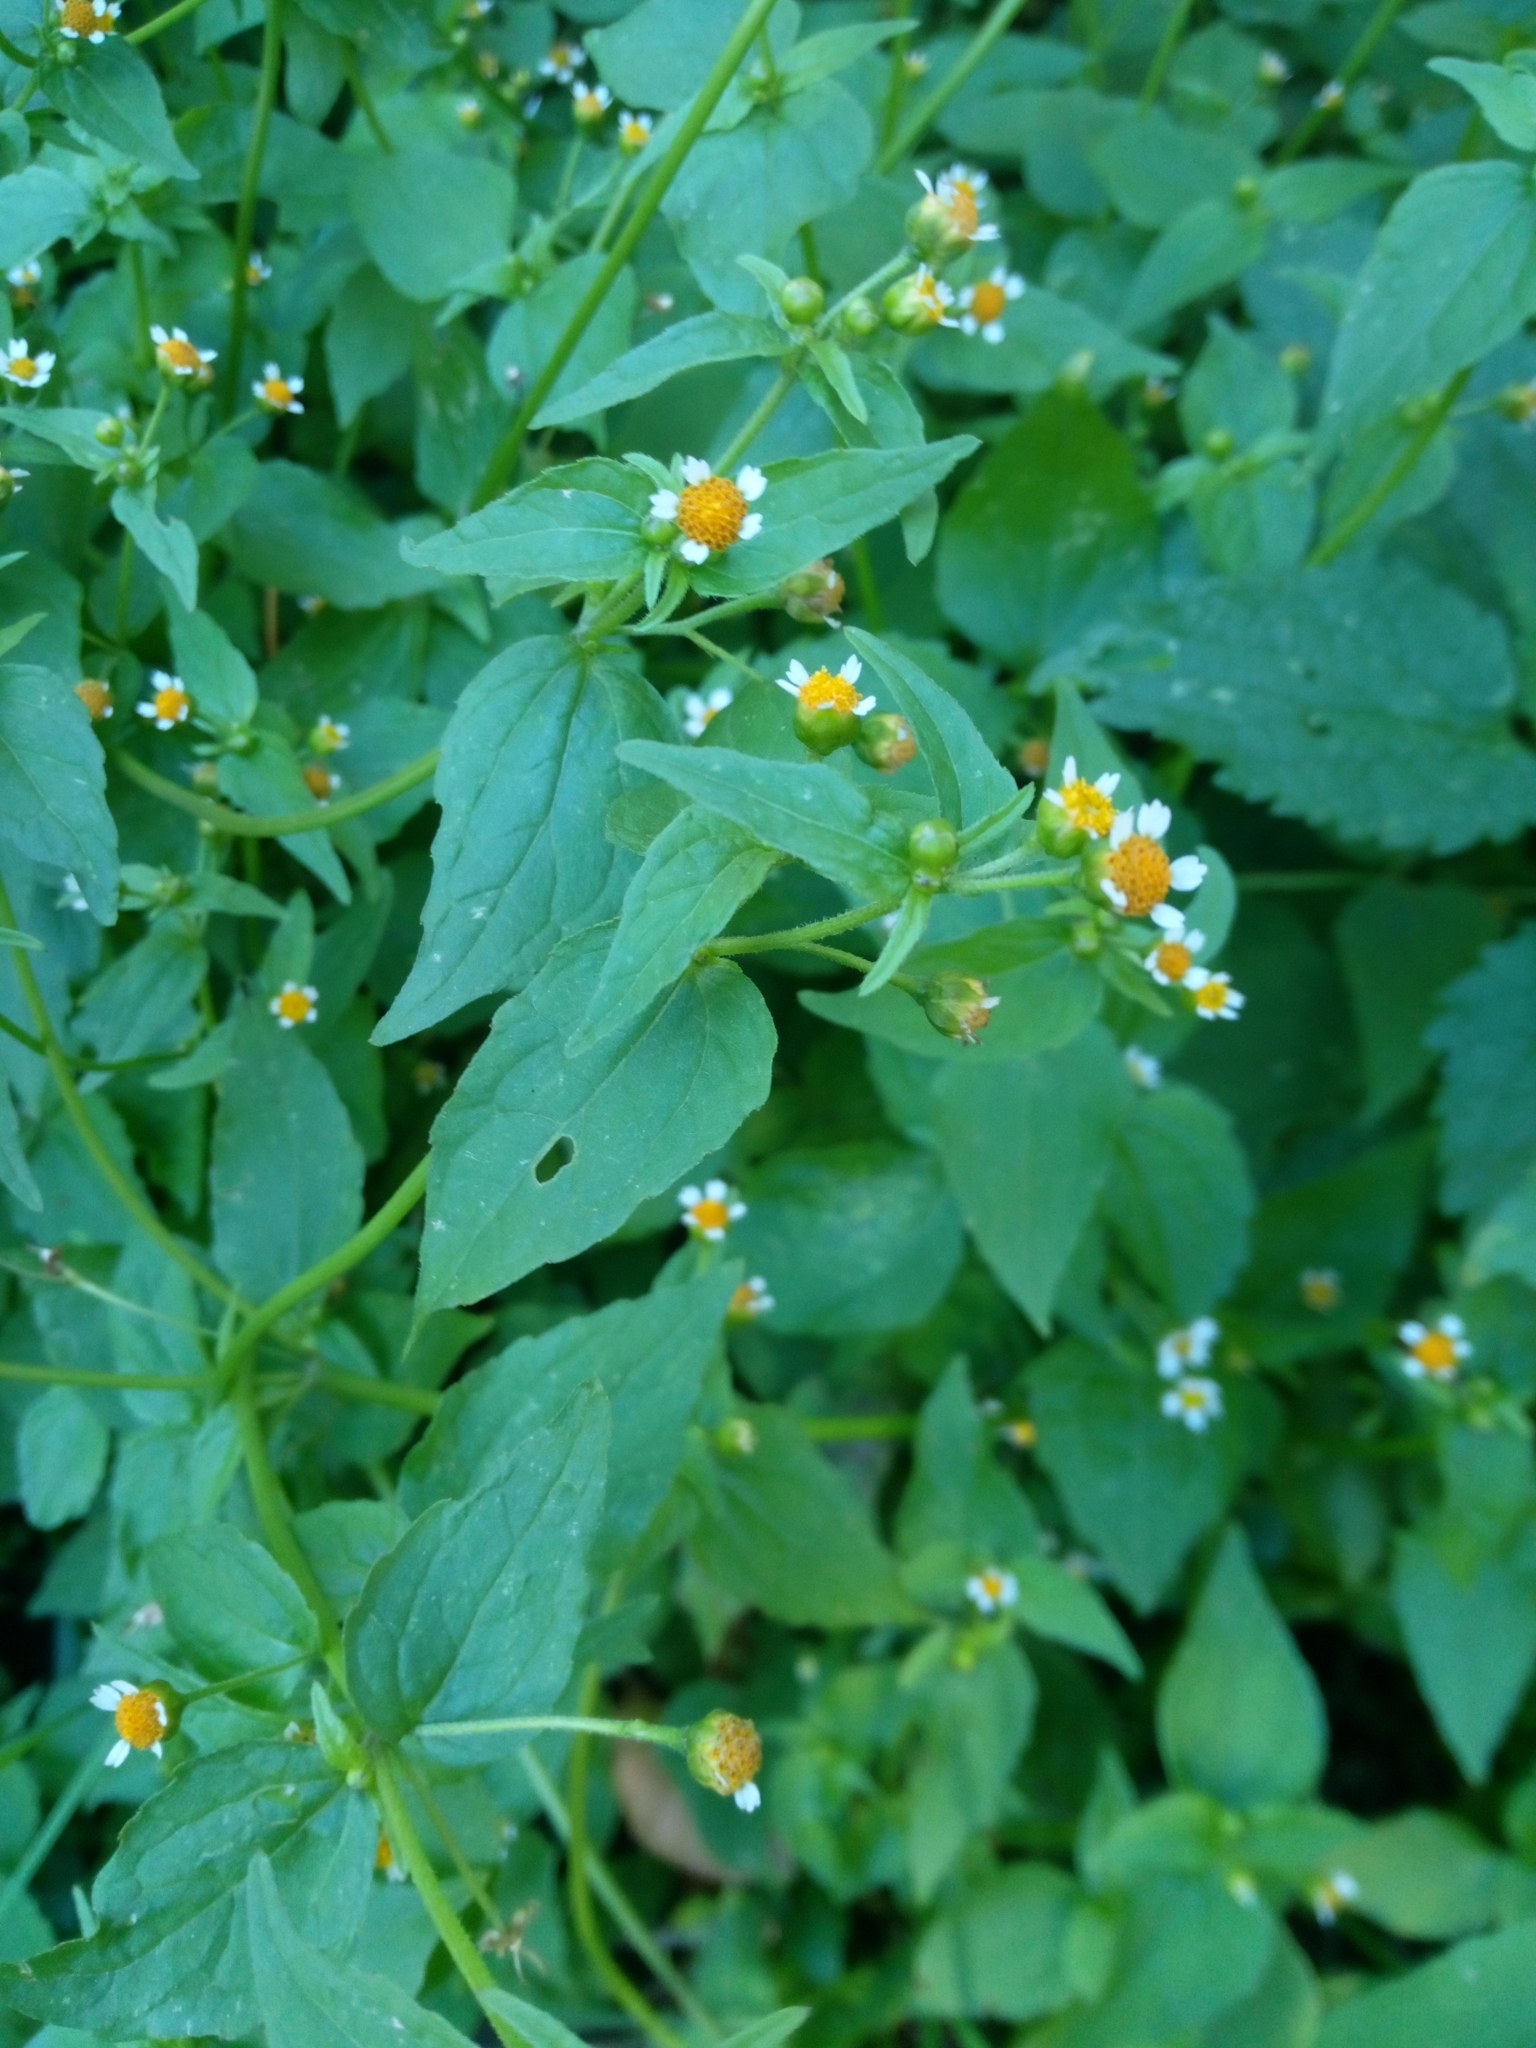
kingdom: Plantae
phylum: Tracheophyta
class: Magnoliopsida
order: Asterales
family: Asteraceae
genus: Galinsoga
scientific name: Galinsoga parviflora
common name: Gallant soldier
